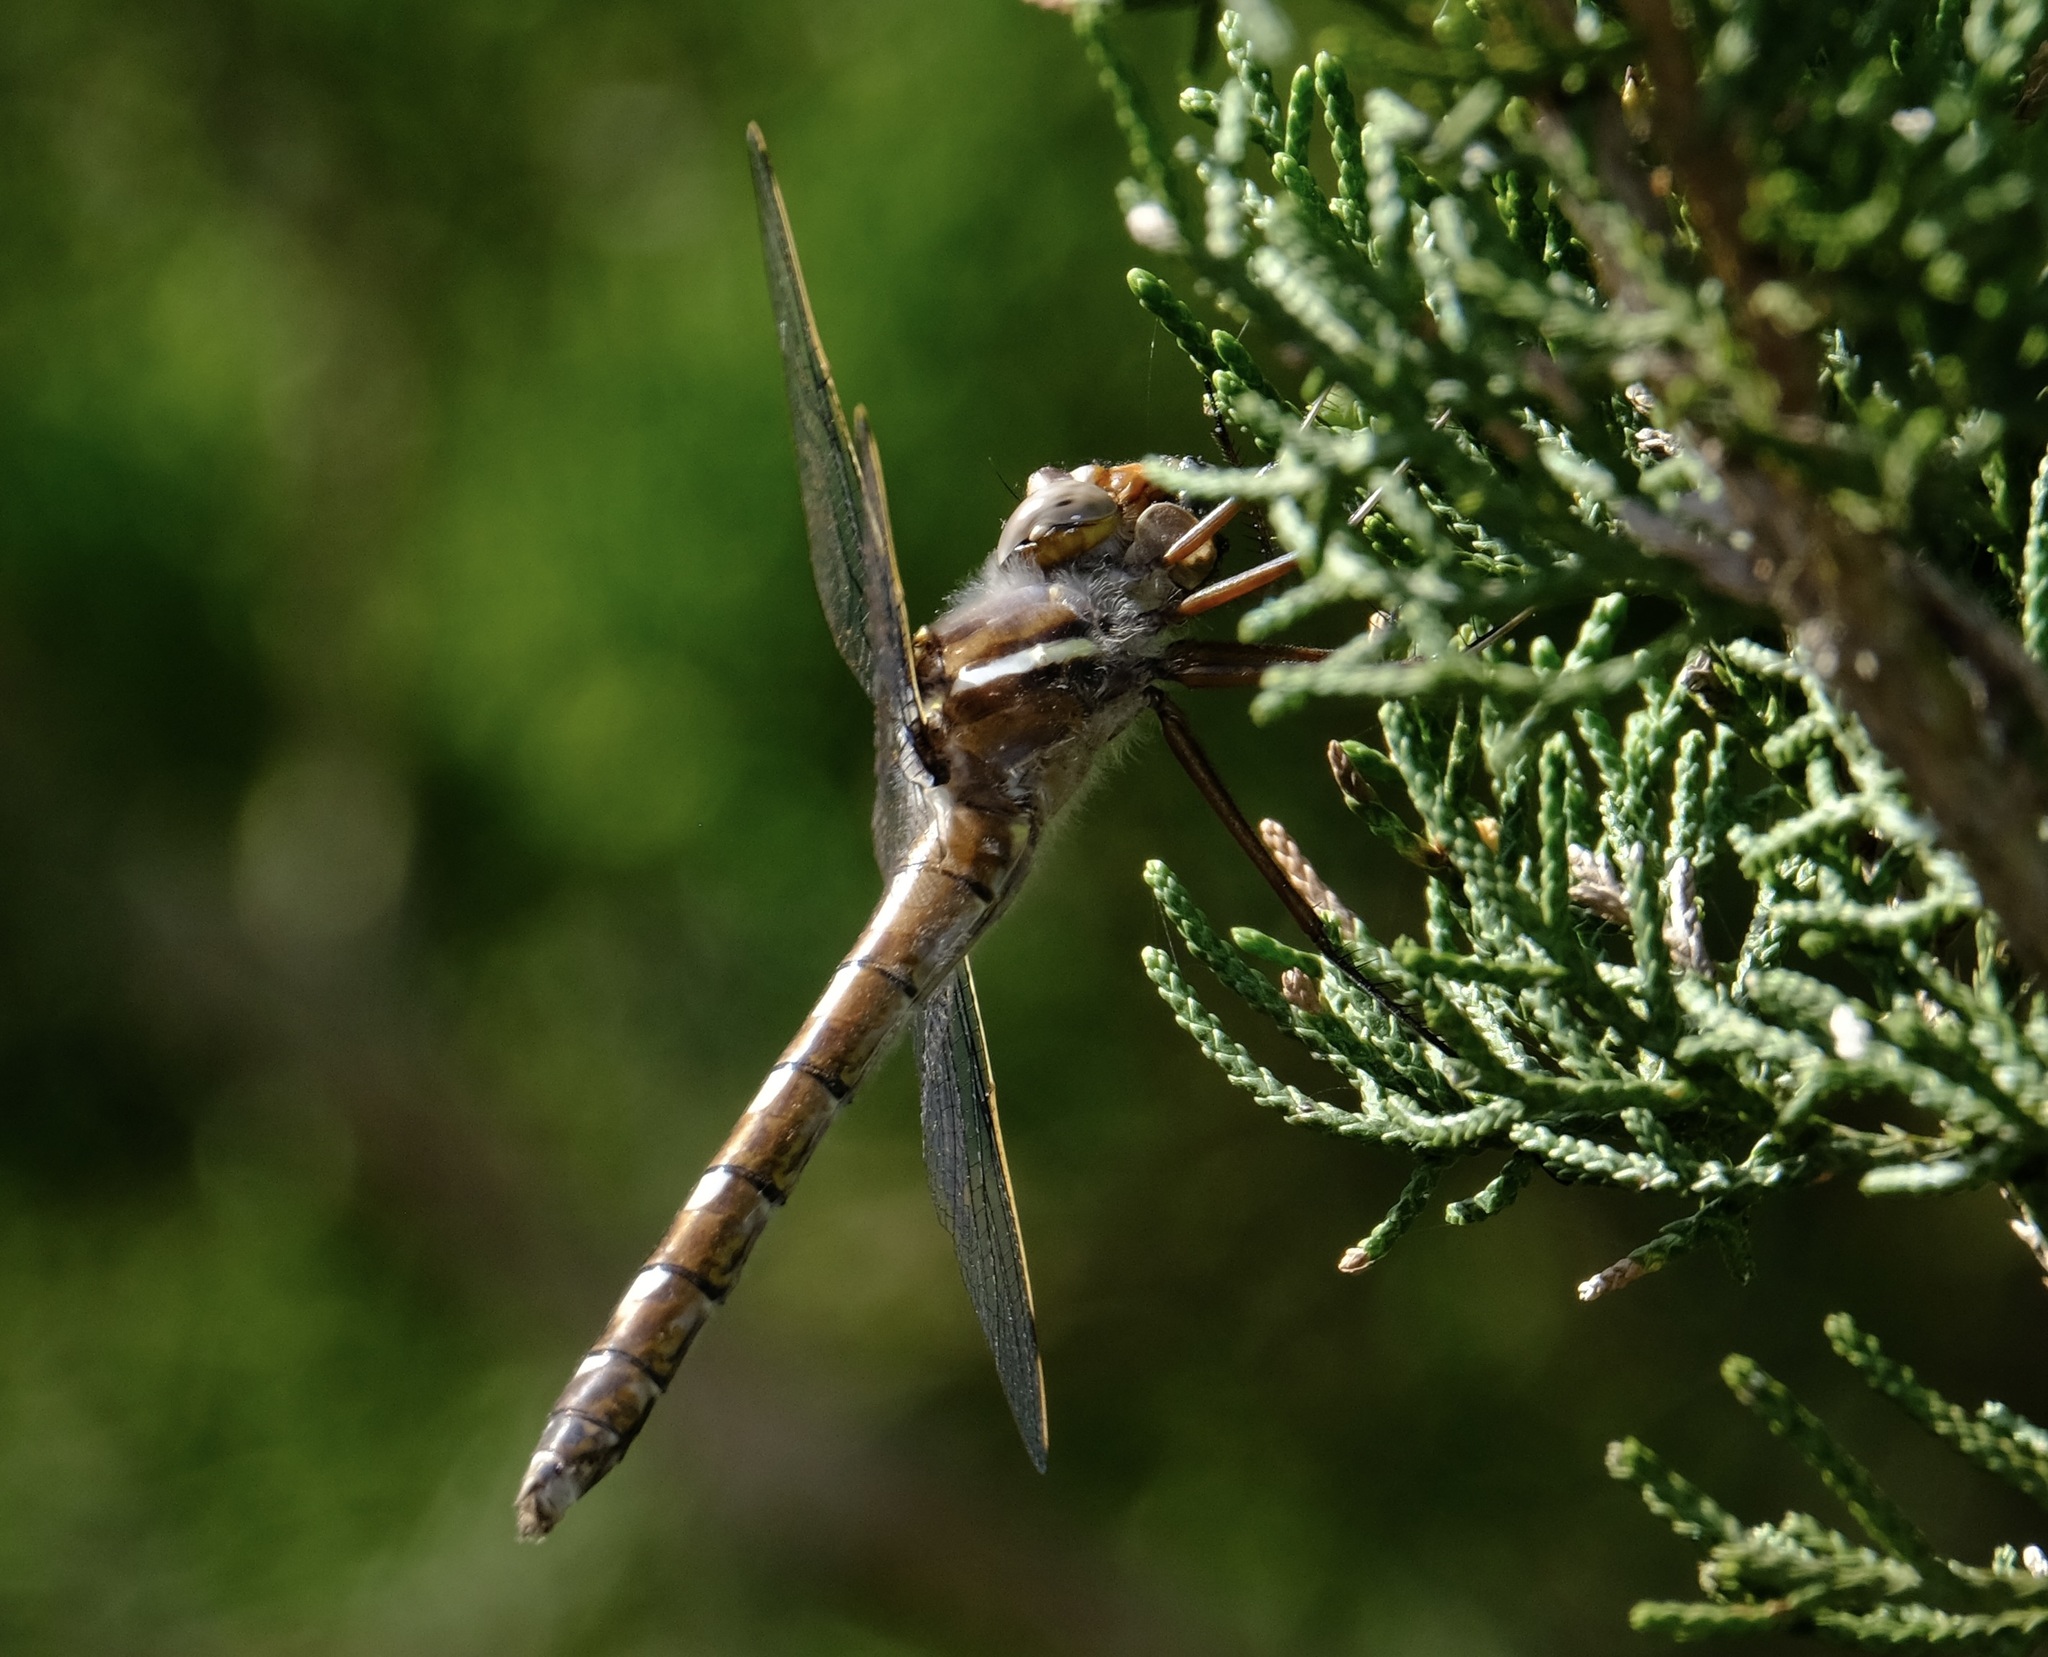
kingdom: Animalia
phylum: Arthropoda
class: Insecta
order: Odonata
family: Macromiidae
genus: Didymops
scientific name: Didymops transversa
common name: Stream cruiser
